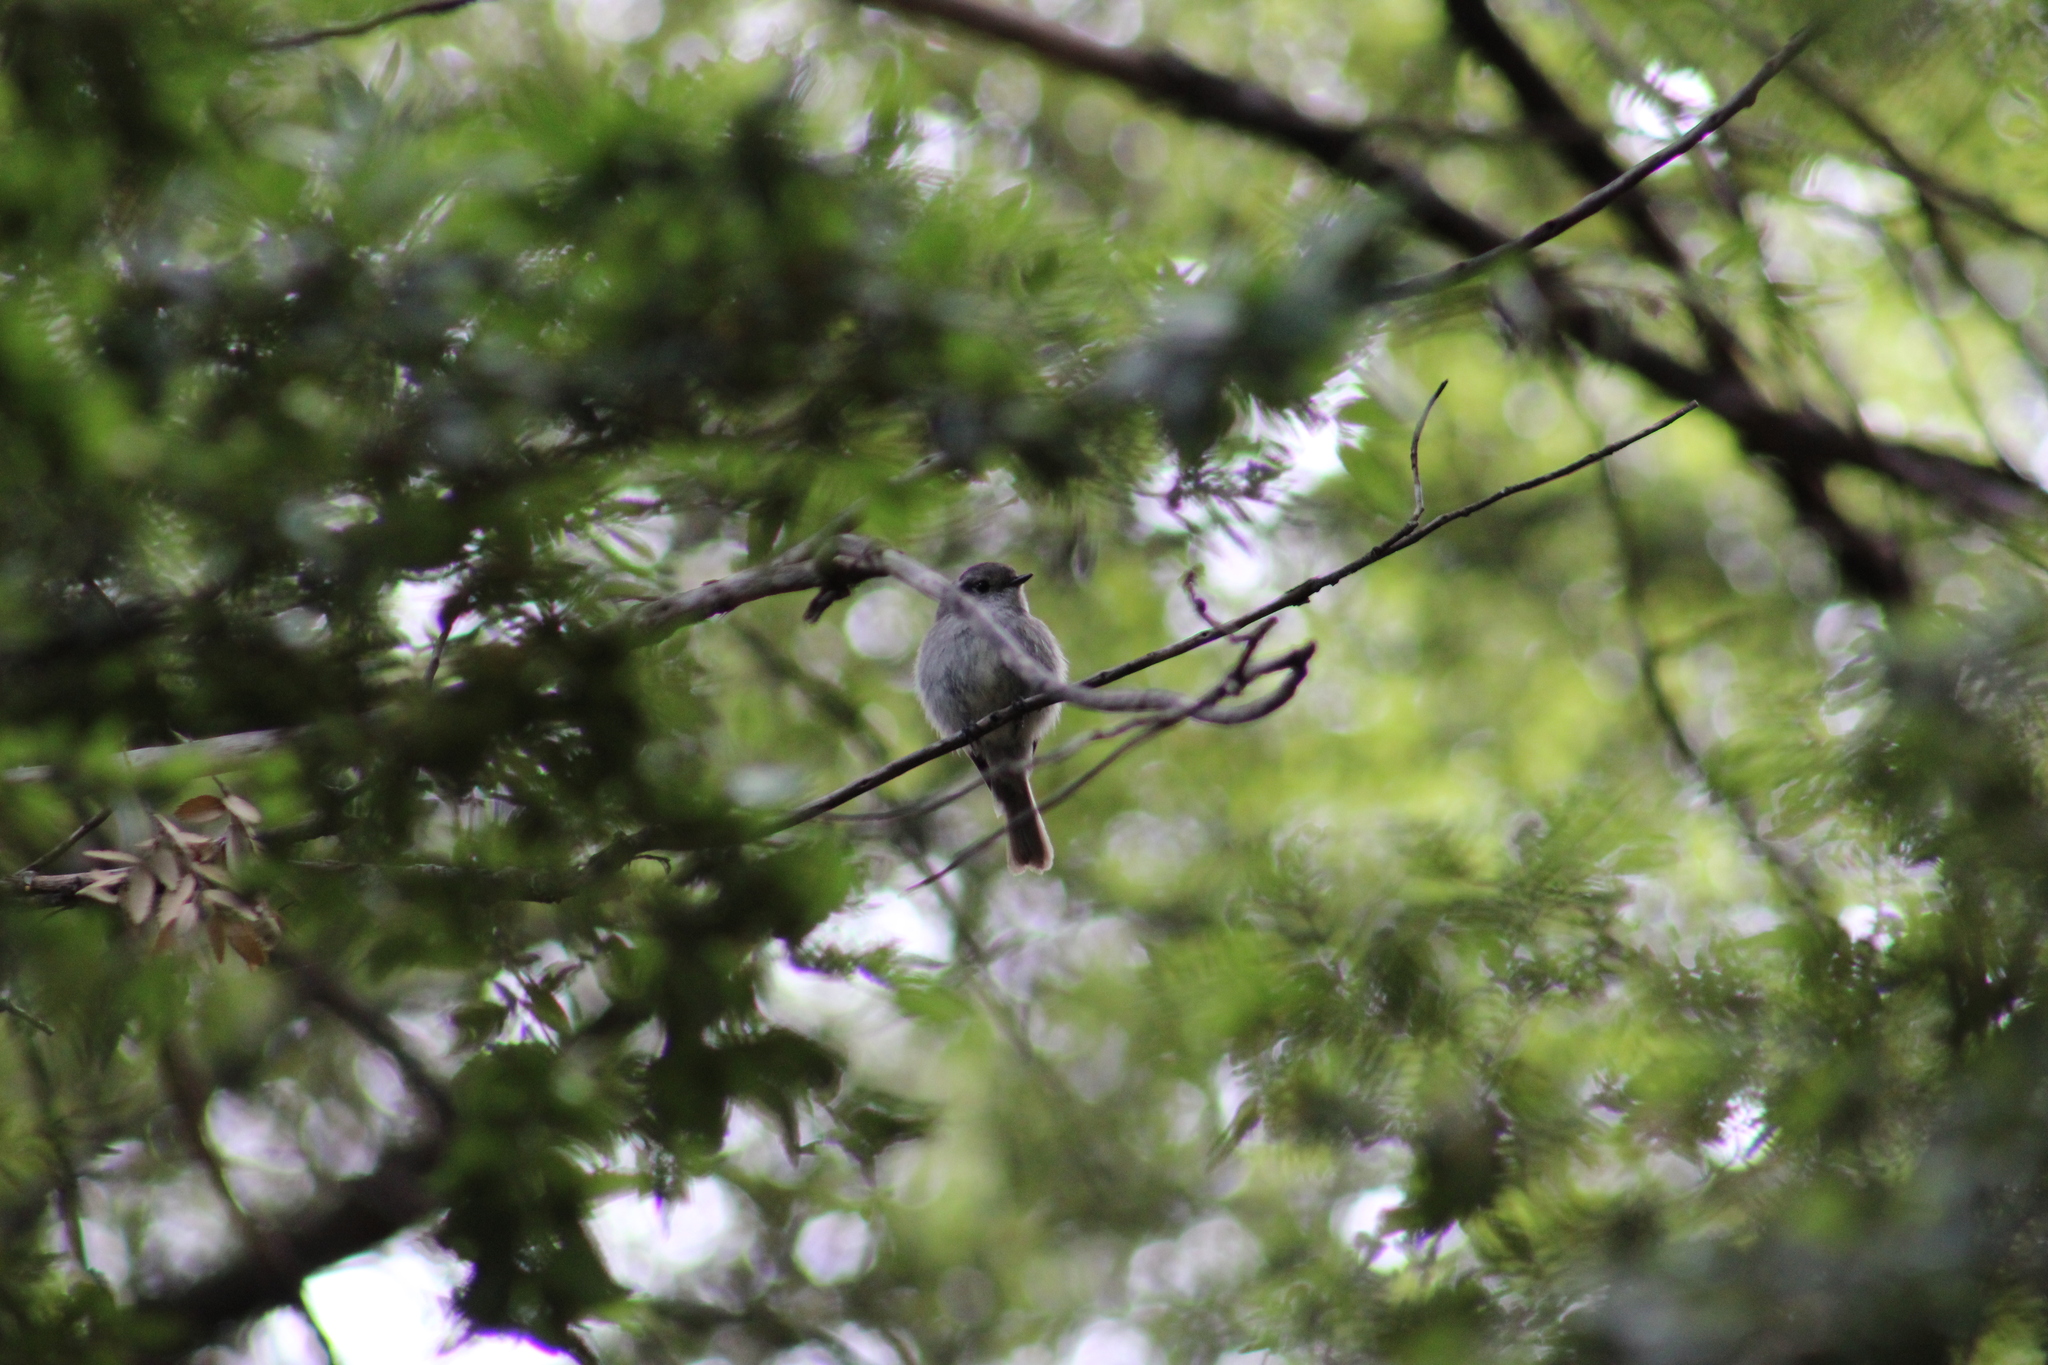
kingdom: Animalia
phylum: Chordata
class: Aves
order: Passeriformes
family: Tyrannidae
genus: Colorhamphus
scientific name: Colorhamphus parvirostris
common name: Patagonian tyrant
